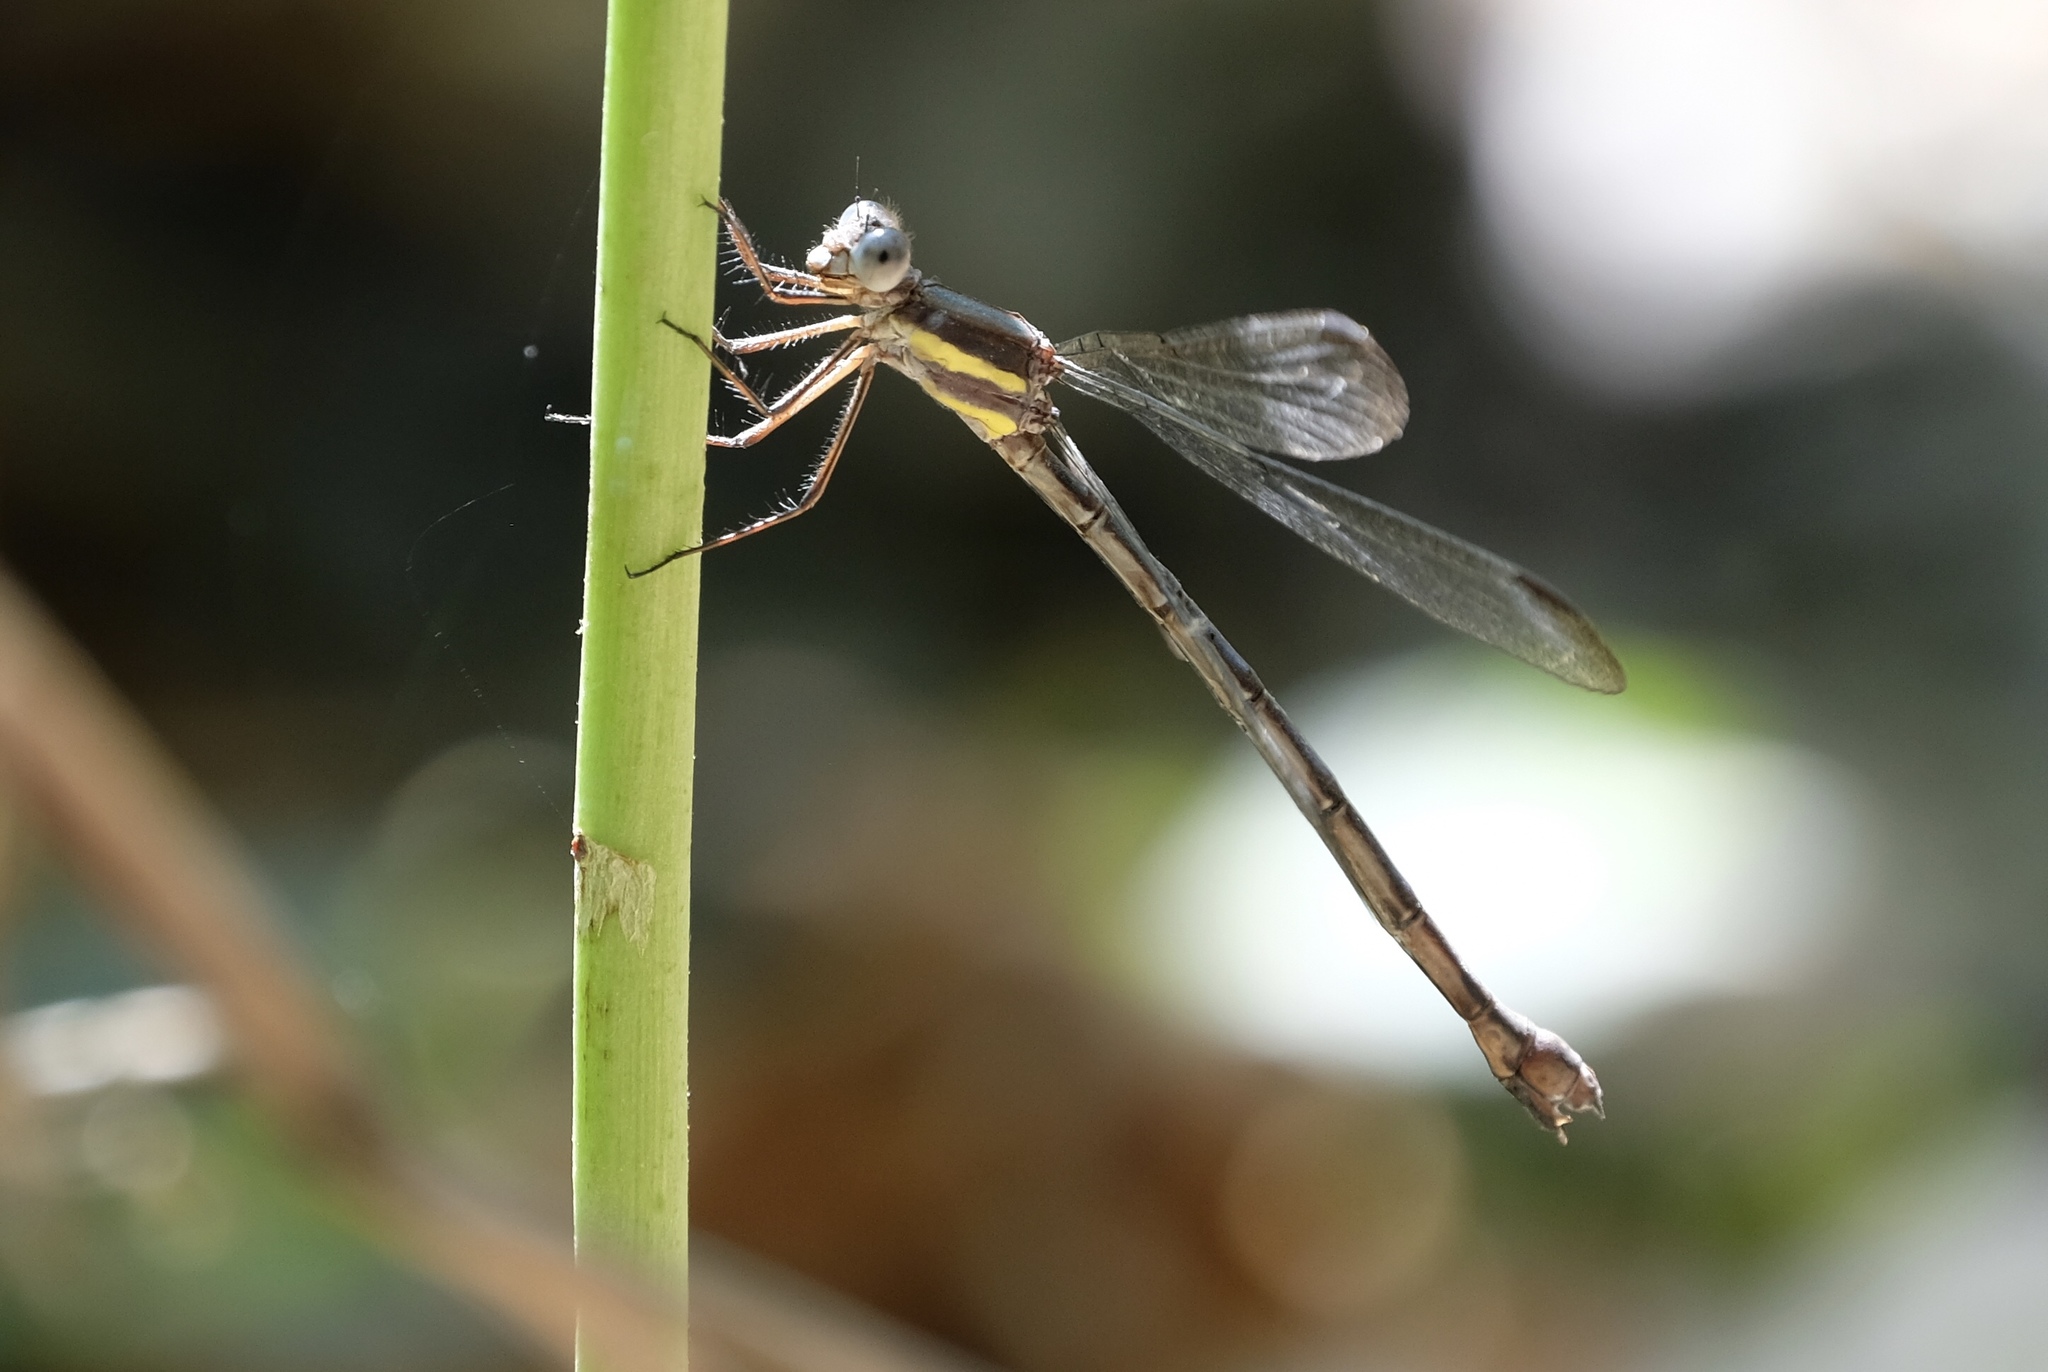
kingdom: Animalia
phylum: Arthropoda
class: Insecta
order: Odonata
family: Lestidae
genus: Archilestes
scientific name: Archilestes grandis
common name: Great spreadwing
